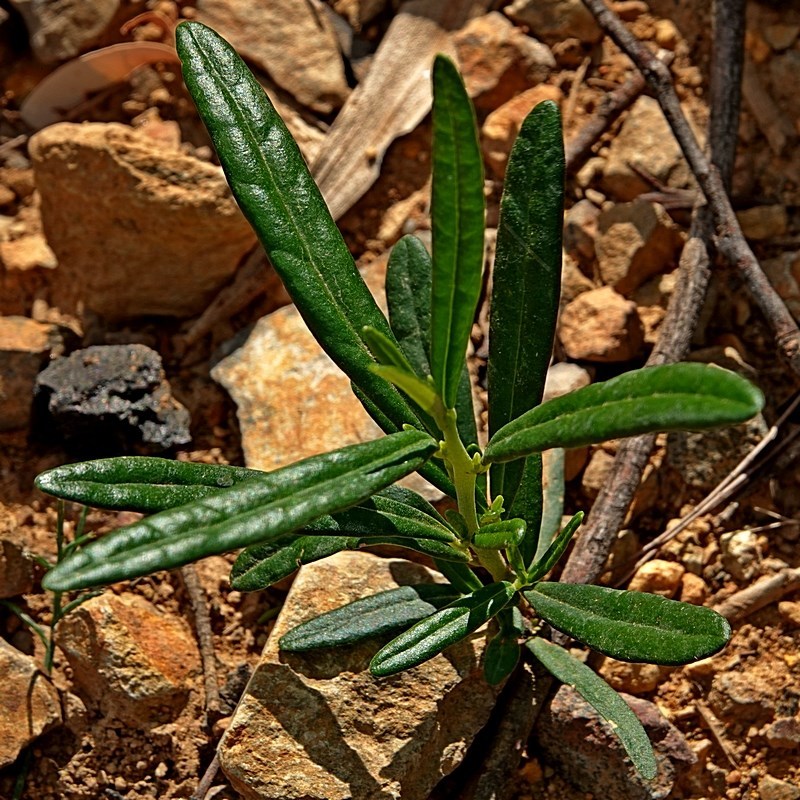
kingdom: Plantae
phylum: Tracheophyta
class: Magnoliopsida
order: Malpighiales
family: Euphorbiaceae
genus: Beyeria
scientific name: Beyeria lasiocarpa
